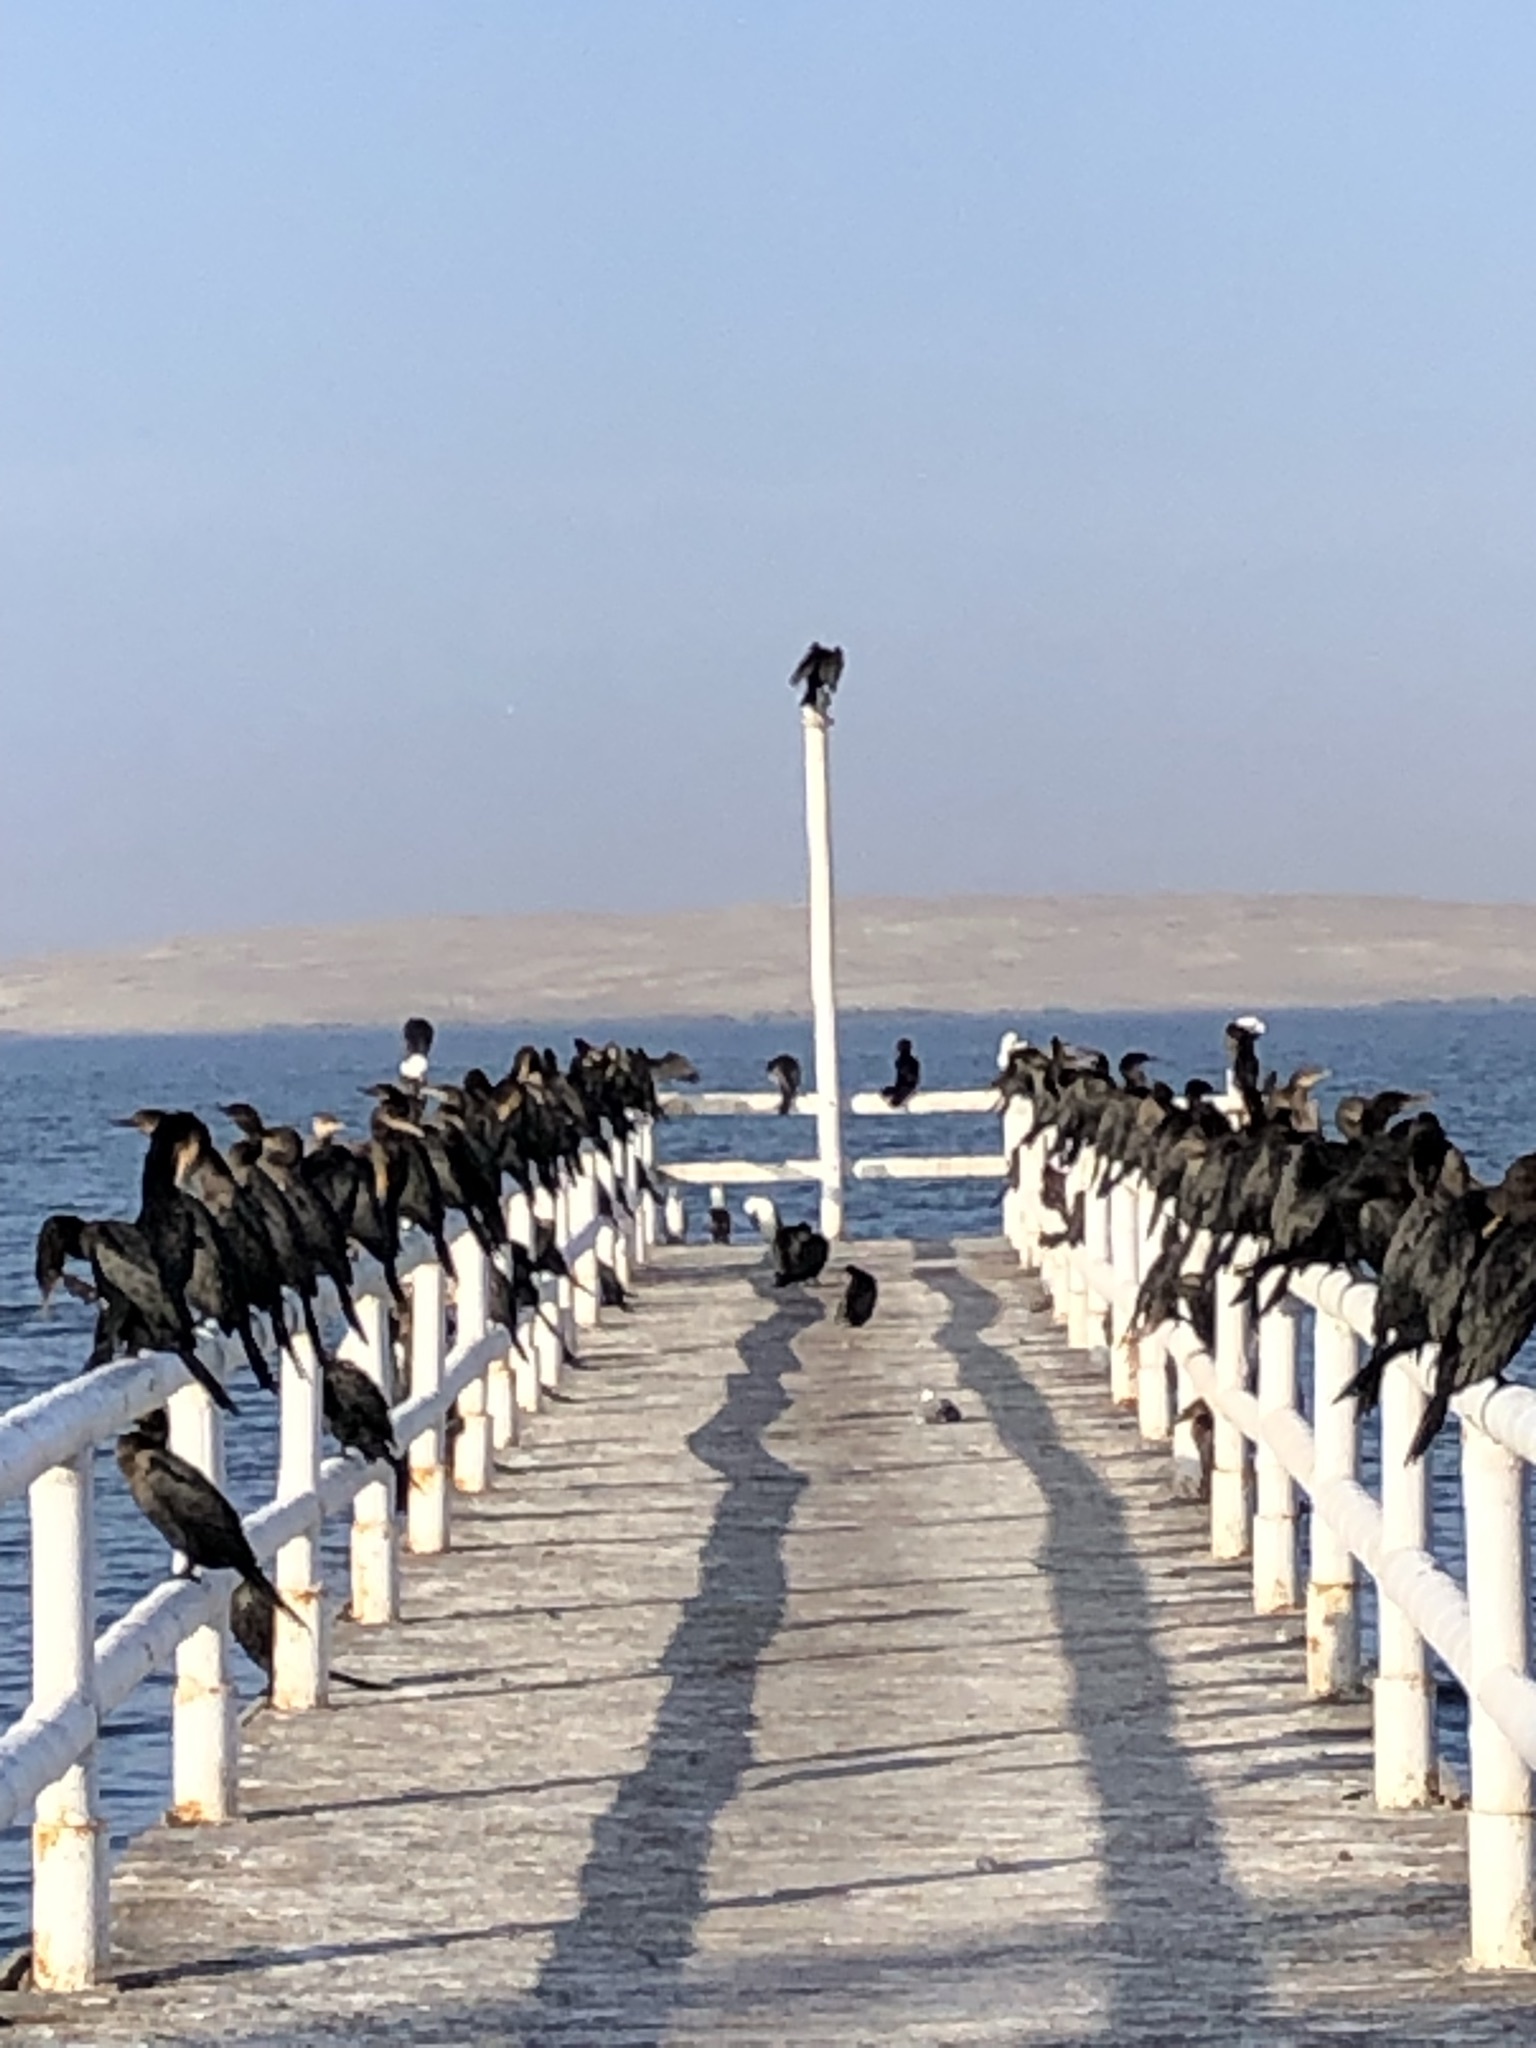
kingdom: Animalia
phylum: Chordata
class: Aves
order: Suliformes
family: Phalacrocoracidae
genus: Phalacrocorax
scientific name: Phalacrocorax brasilianus
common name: Neotropic cormorant
